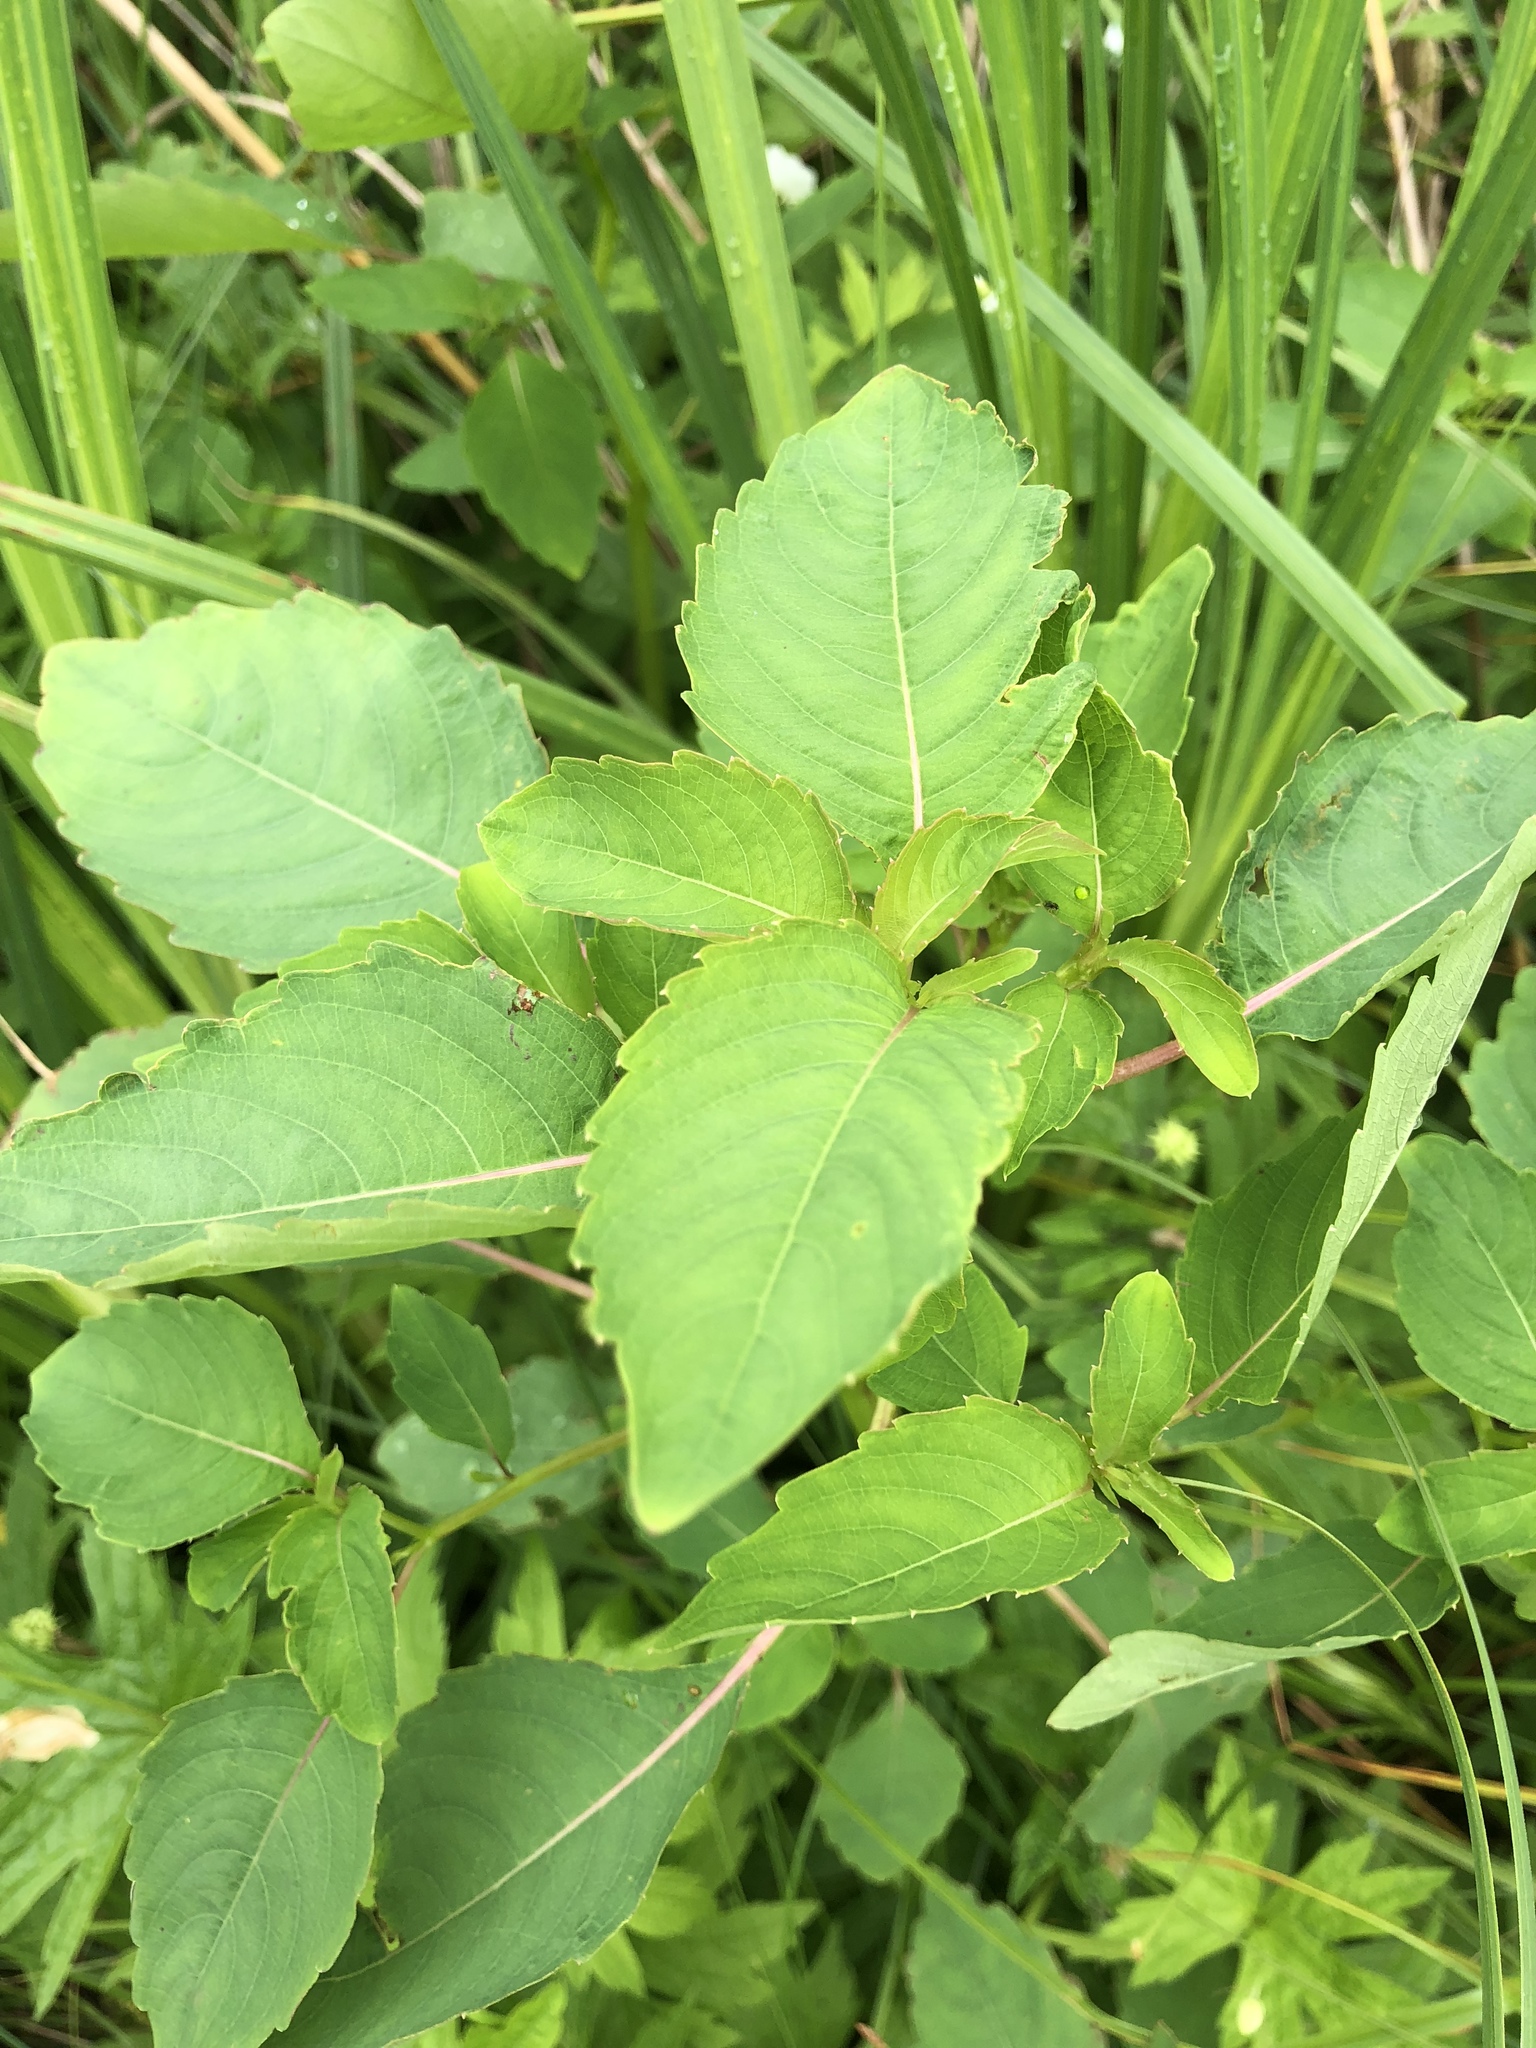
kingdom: Plantae
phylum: Tracheophyta
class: Magnoliopsida
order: Ericales
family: Balsaminaceae
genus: Impatiens
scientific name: Impatiens capensis
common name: Orange balsam
